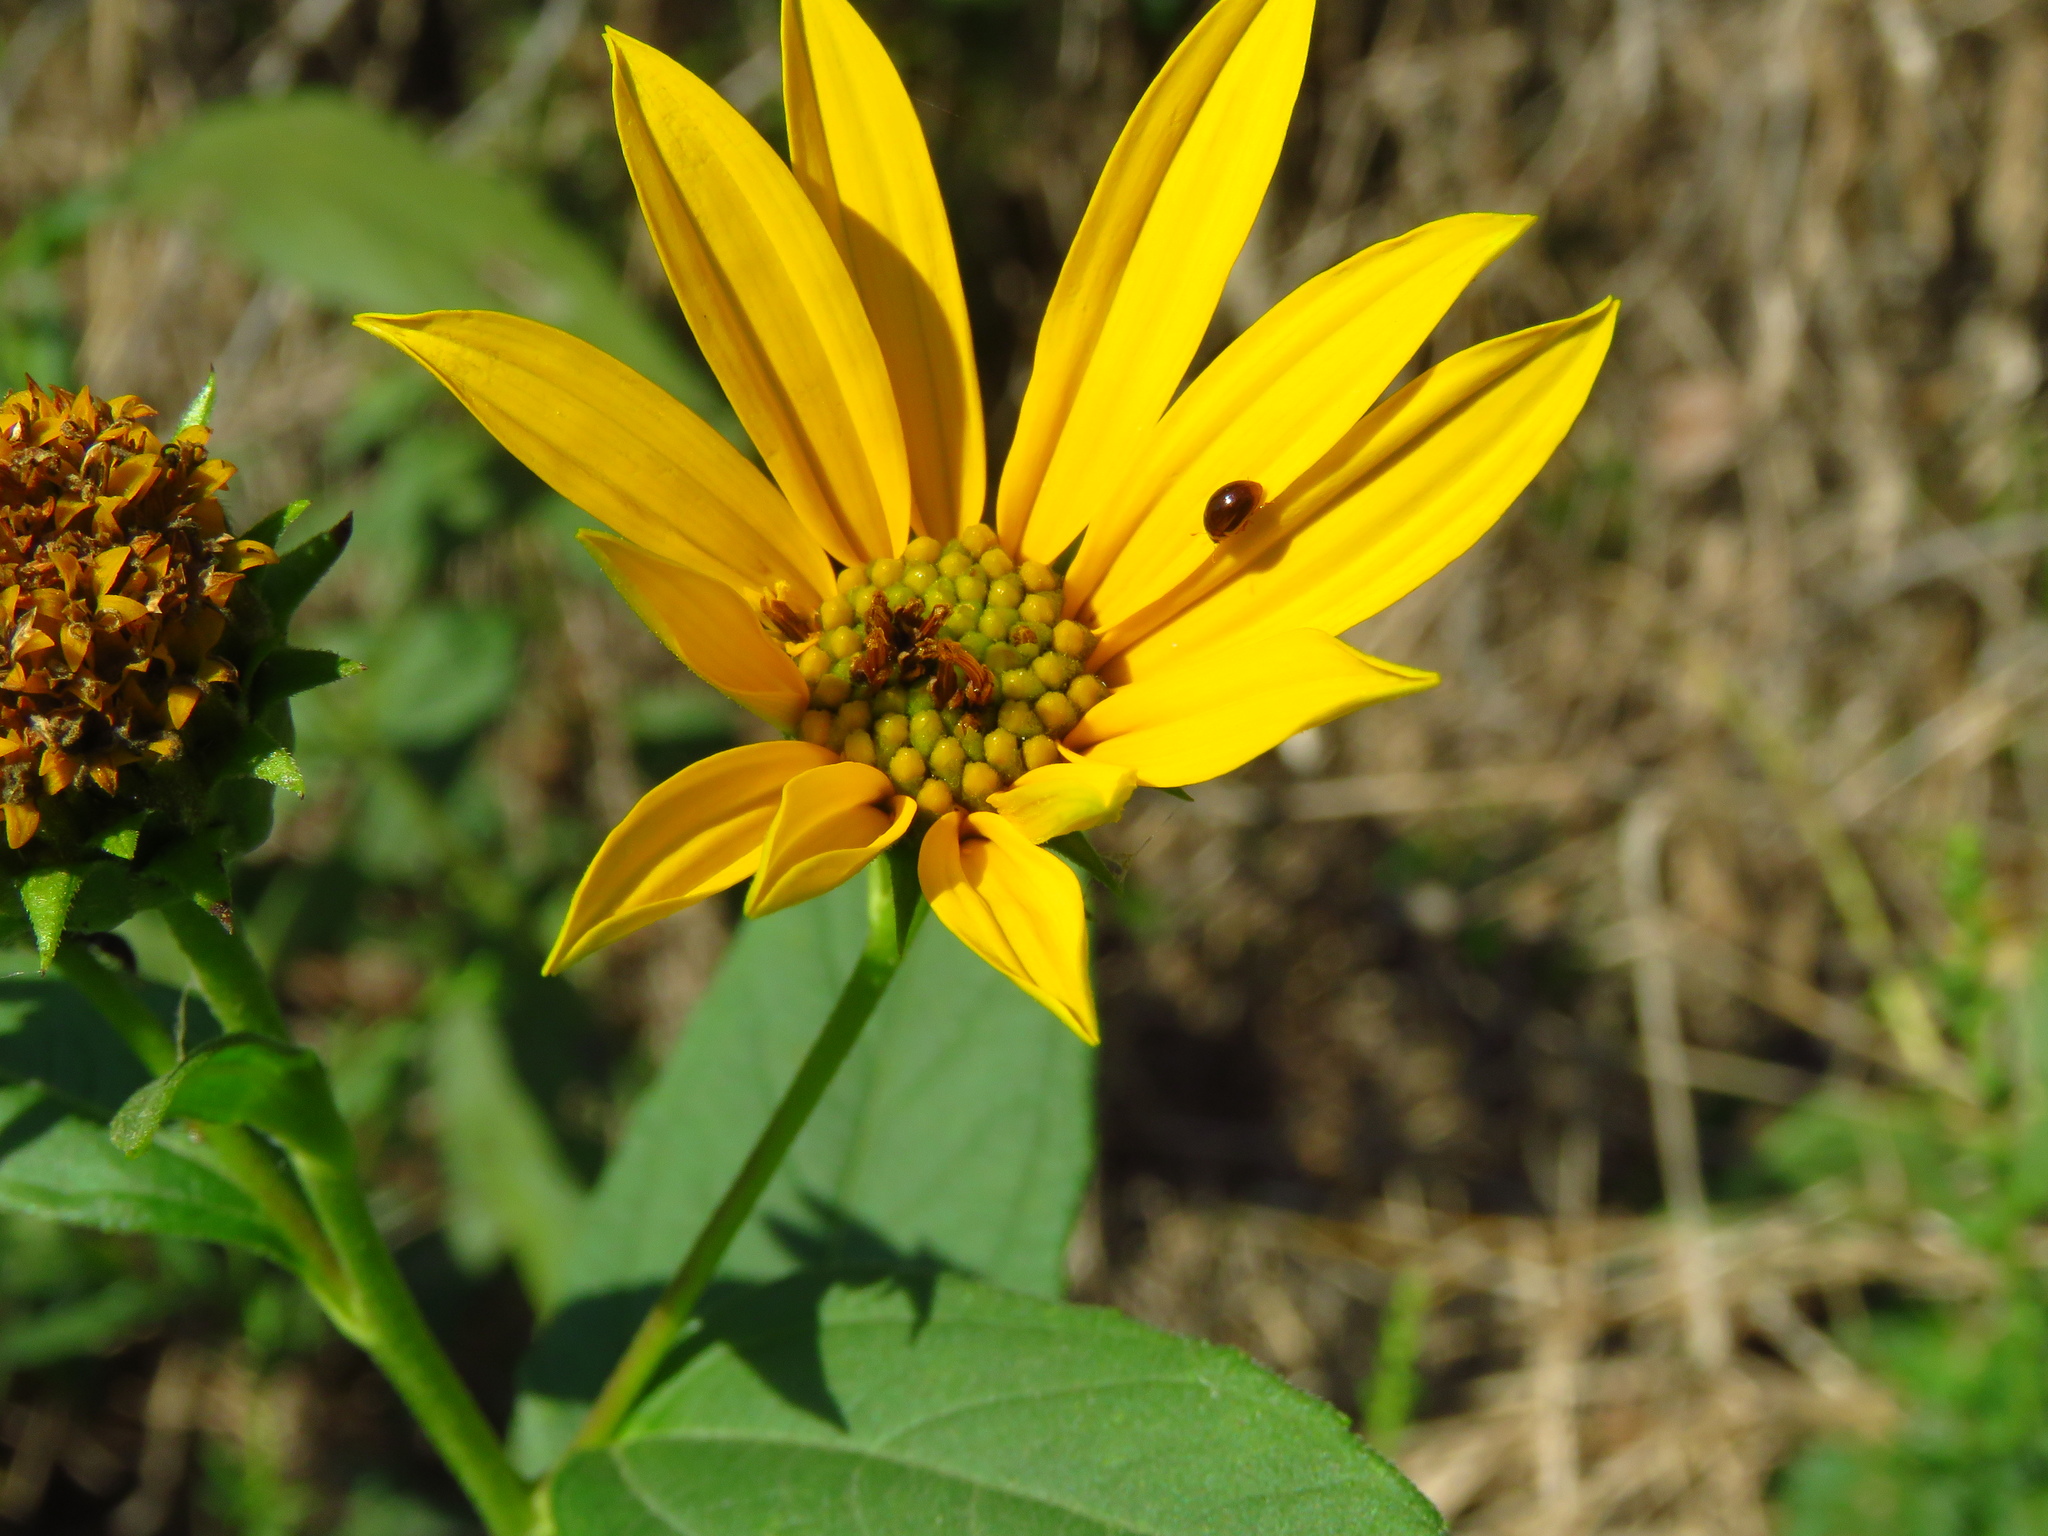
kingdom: Plantae
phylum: Tracheophyta
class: Magnoliopsida
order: Asterales
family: Asteraceae
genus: Helianthus
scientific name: Helianthus tuberosus
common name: Jerusalem artichoke
